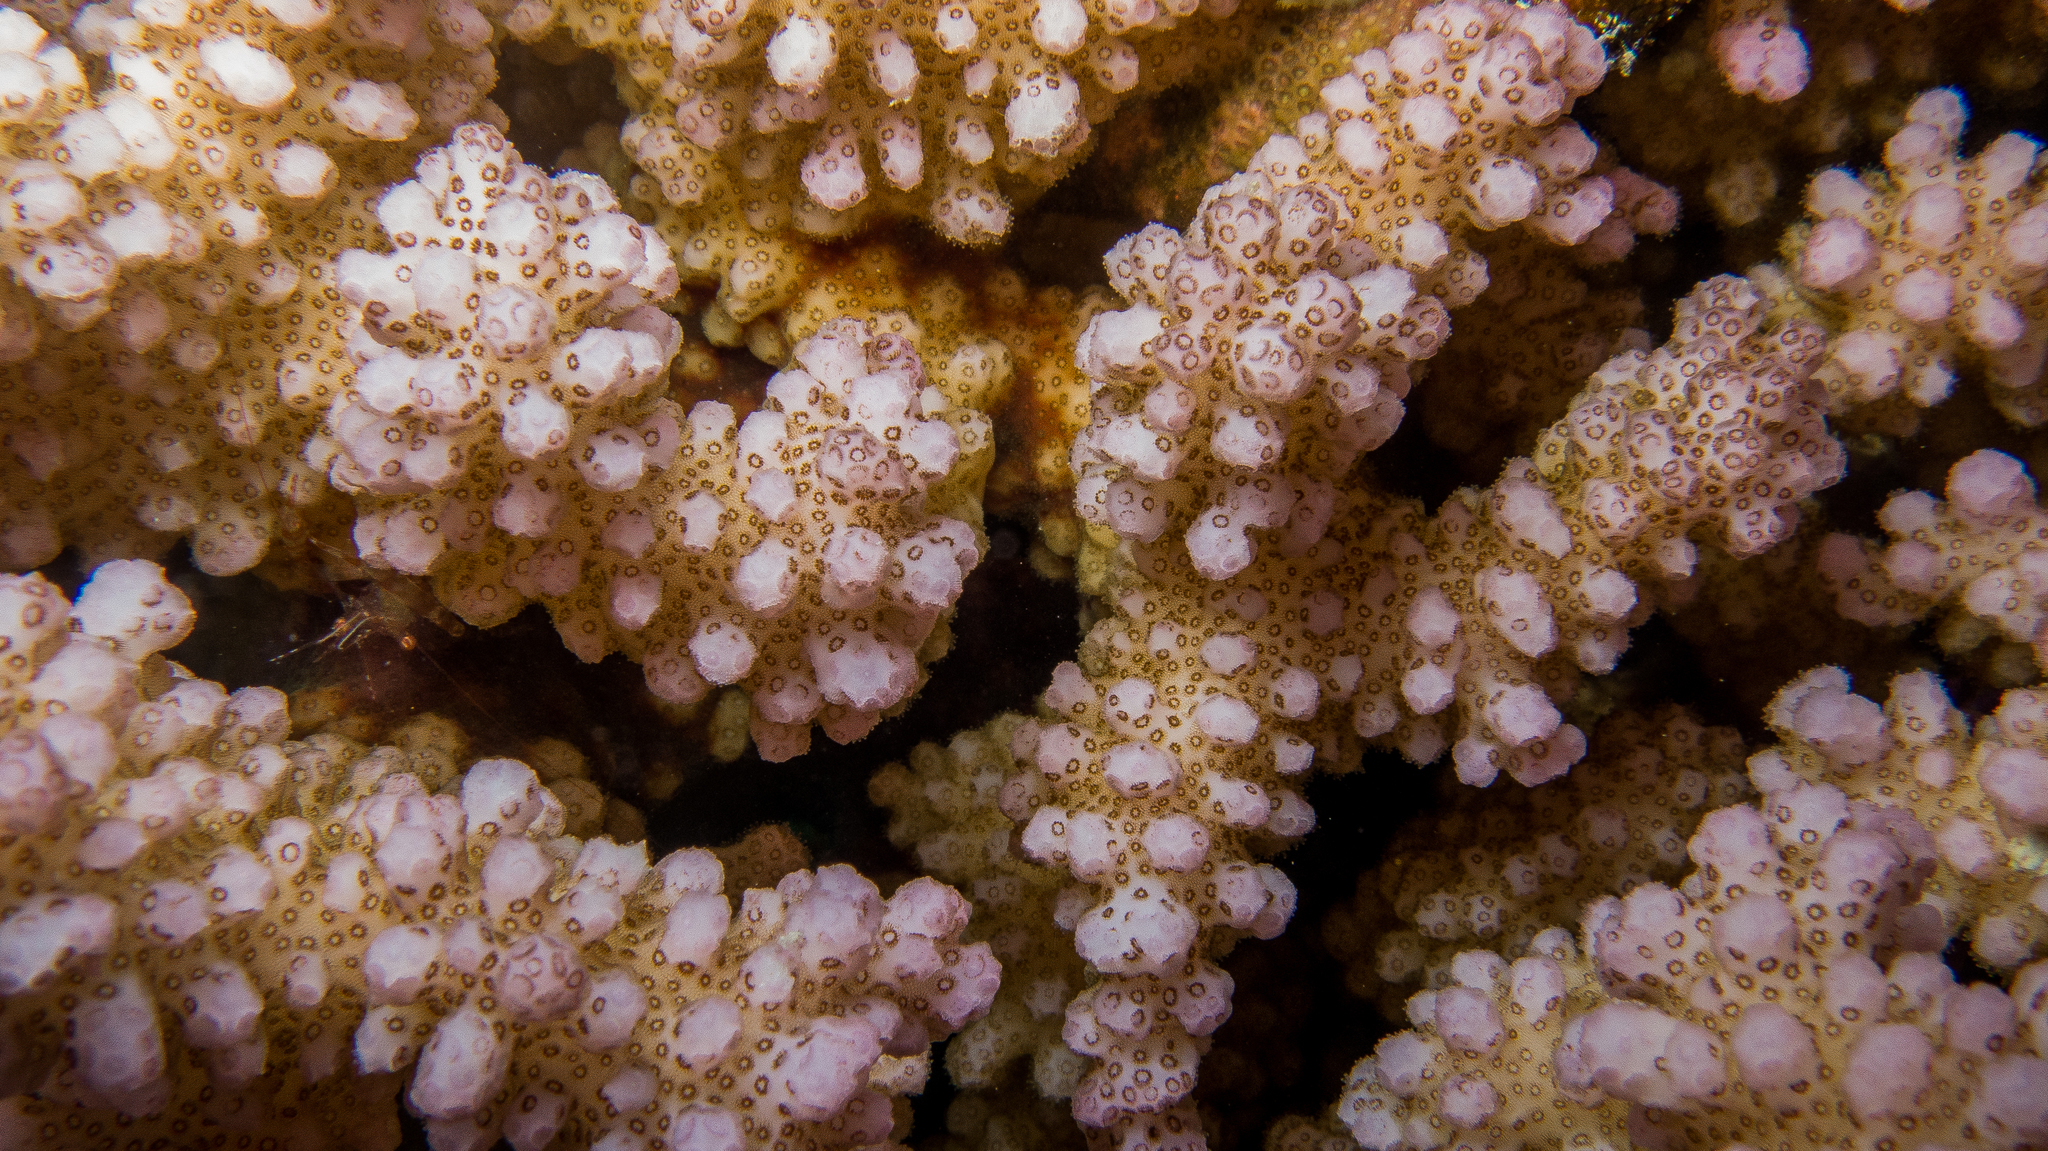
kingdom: Animalia
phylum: Cnidaria
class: Anthozoa
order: Scleractinia
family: Pocilloporidae
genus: Pocillopora
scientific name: Pocillopora verrucosa
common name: Cauliflower coral
